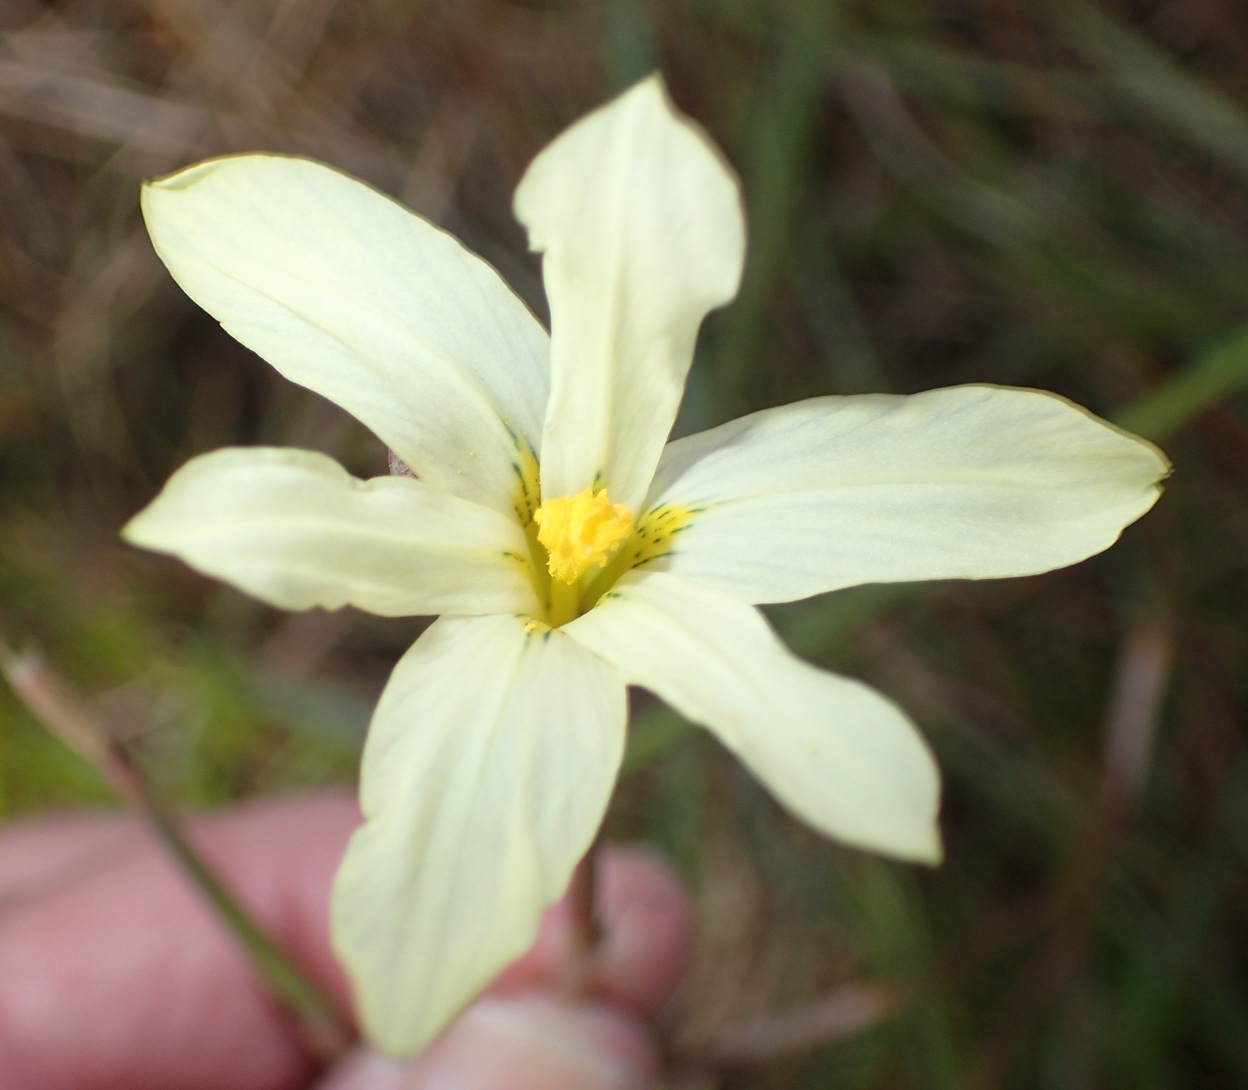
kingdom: Plantae
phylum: Tracheophyta
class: Liliopsida
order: Asparagales
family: Iridaceae
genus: Moraea
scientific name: Moraea bulbillifera
